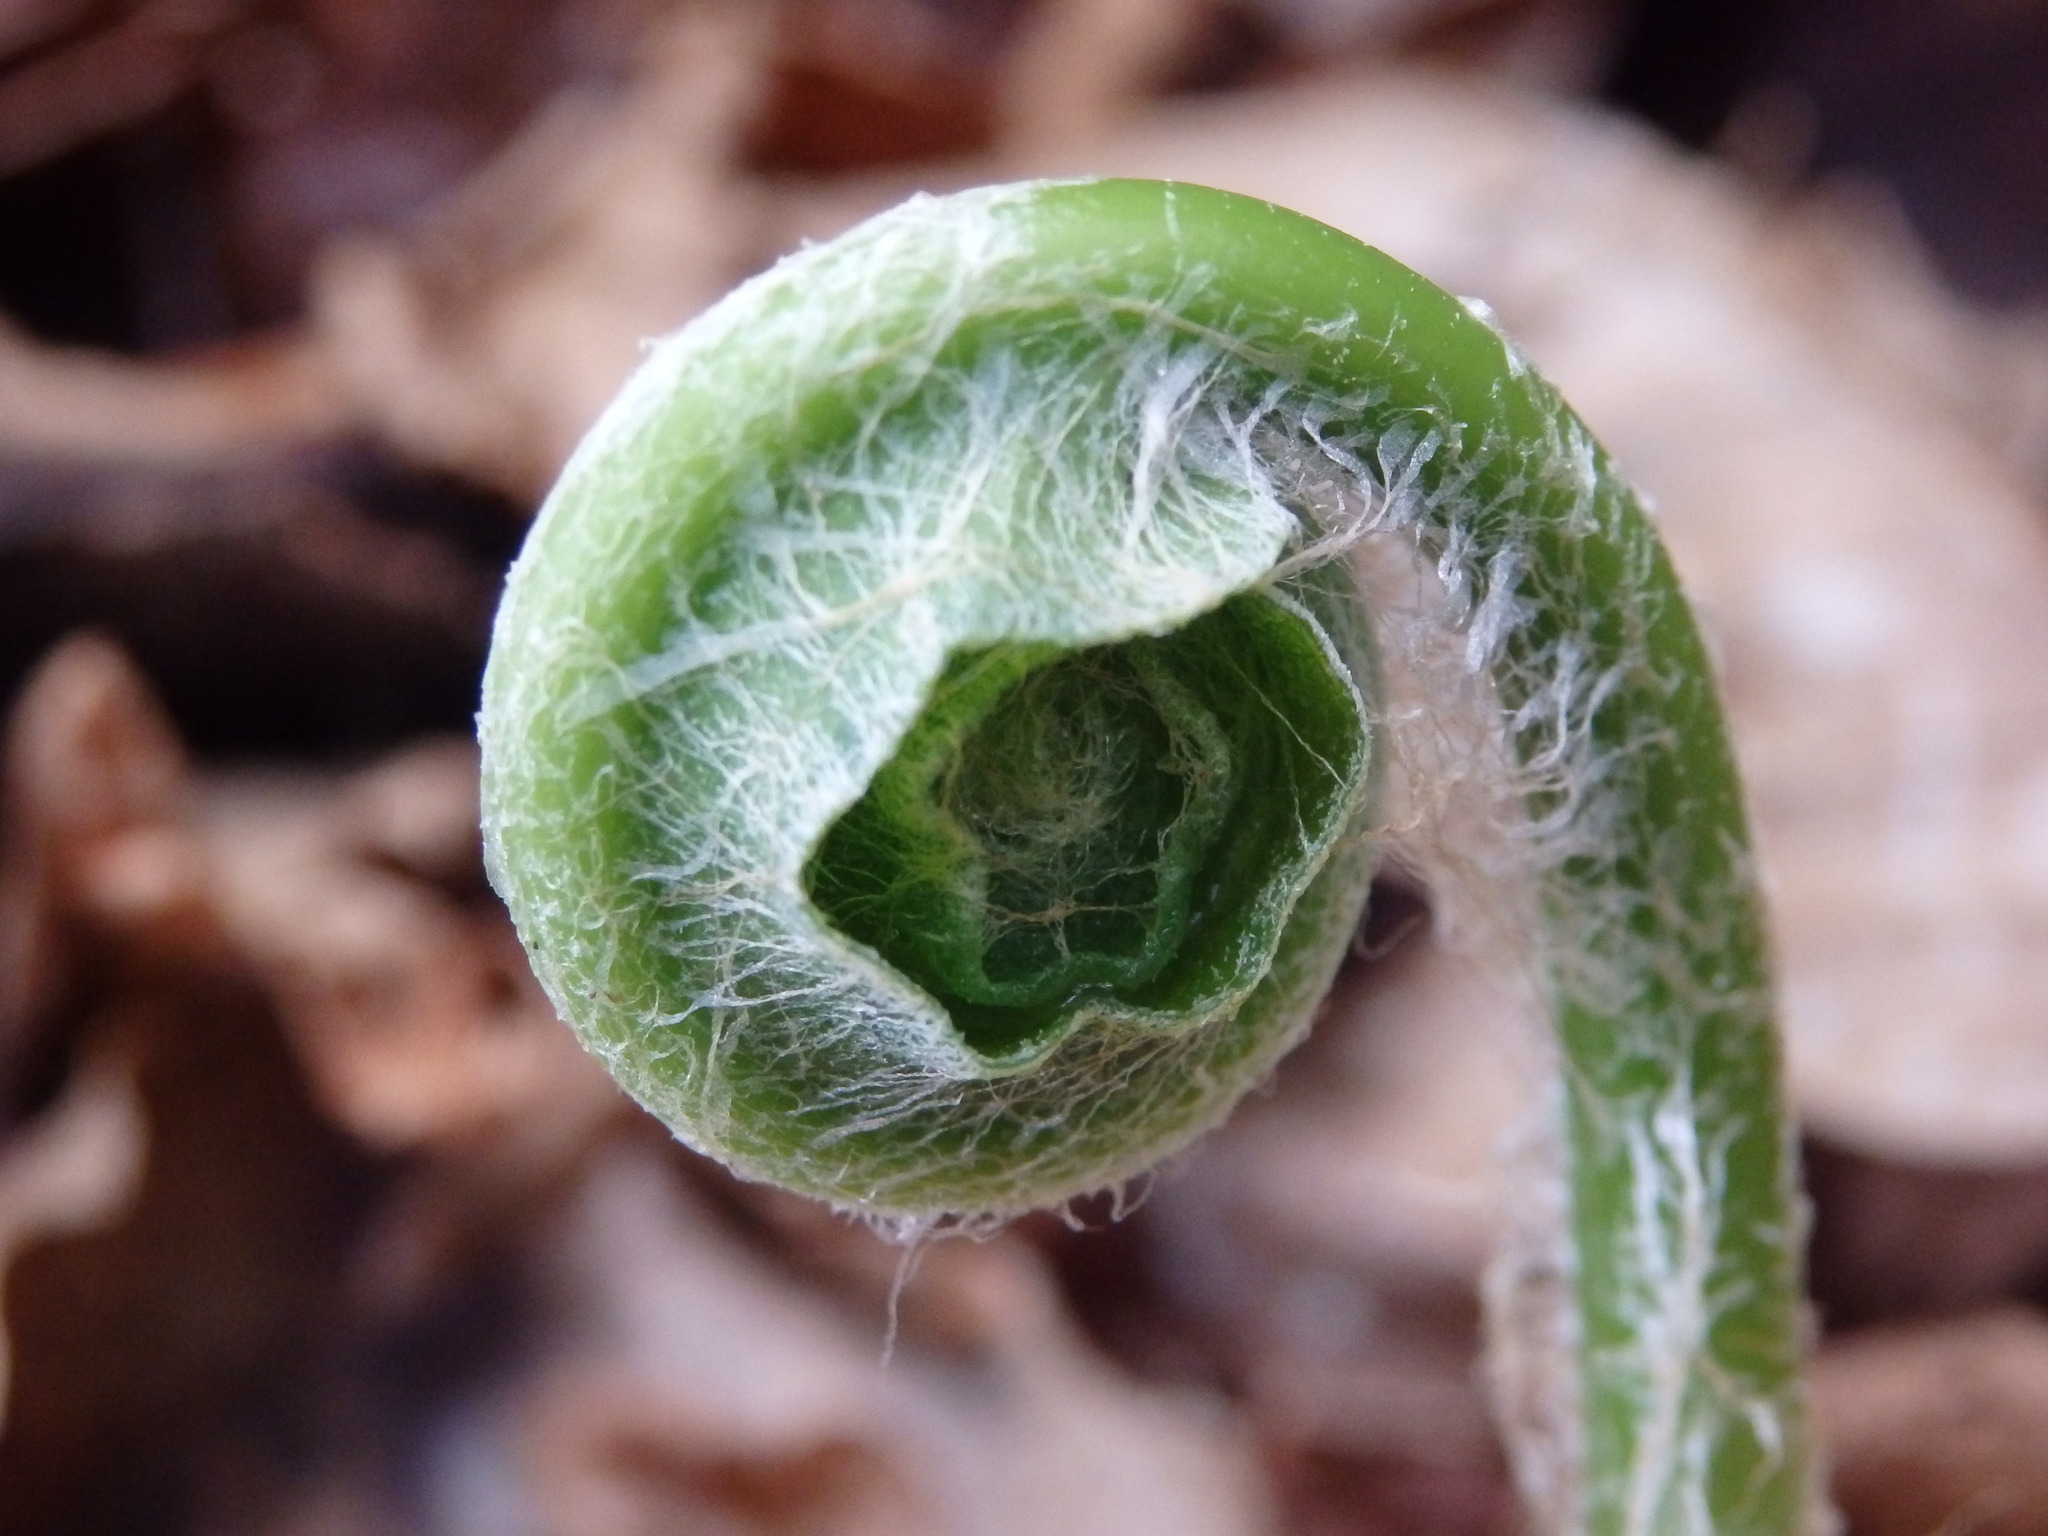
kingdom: Plantae
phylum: Tracheophyta
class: Polypodiopsida
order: Polypodiales
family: Aspleniaceae
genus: Asplenium
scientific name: Asplenium scolopendrium
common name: Hart's-tongue fern
